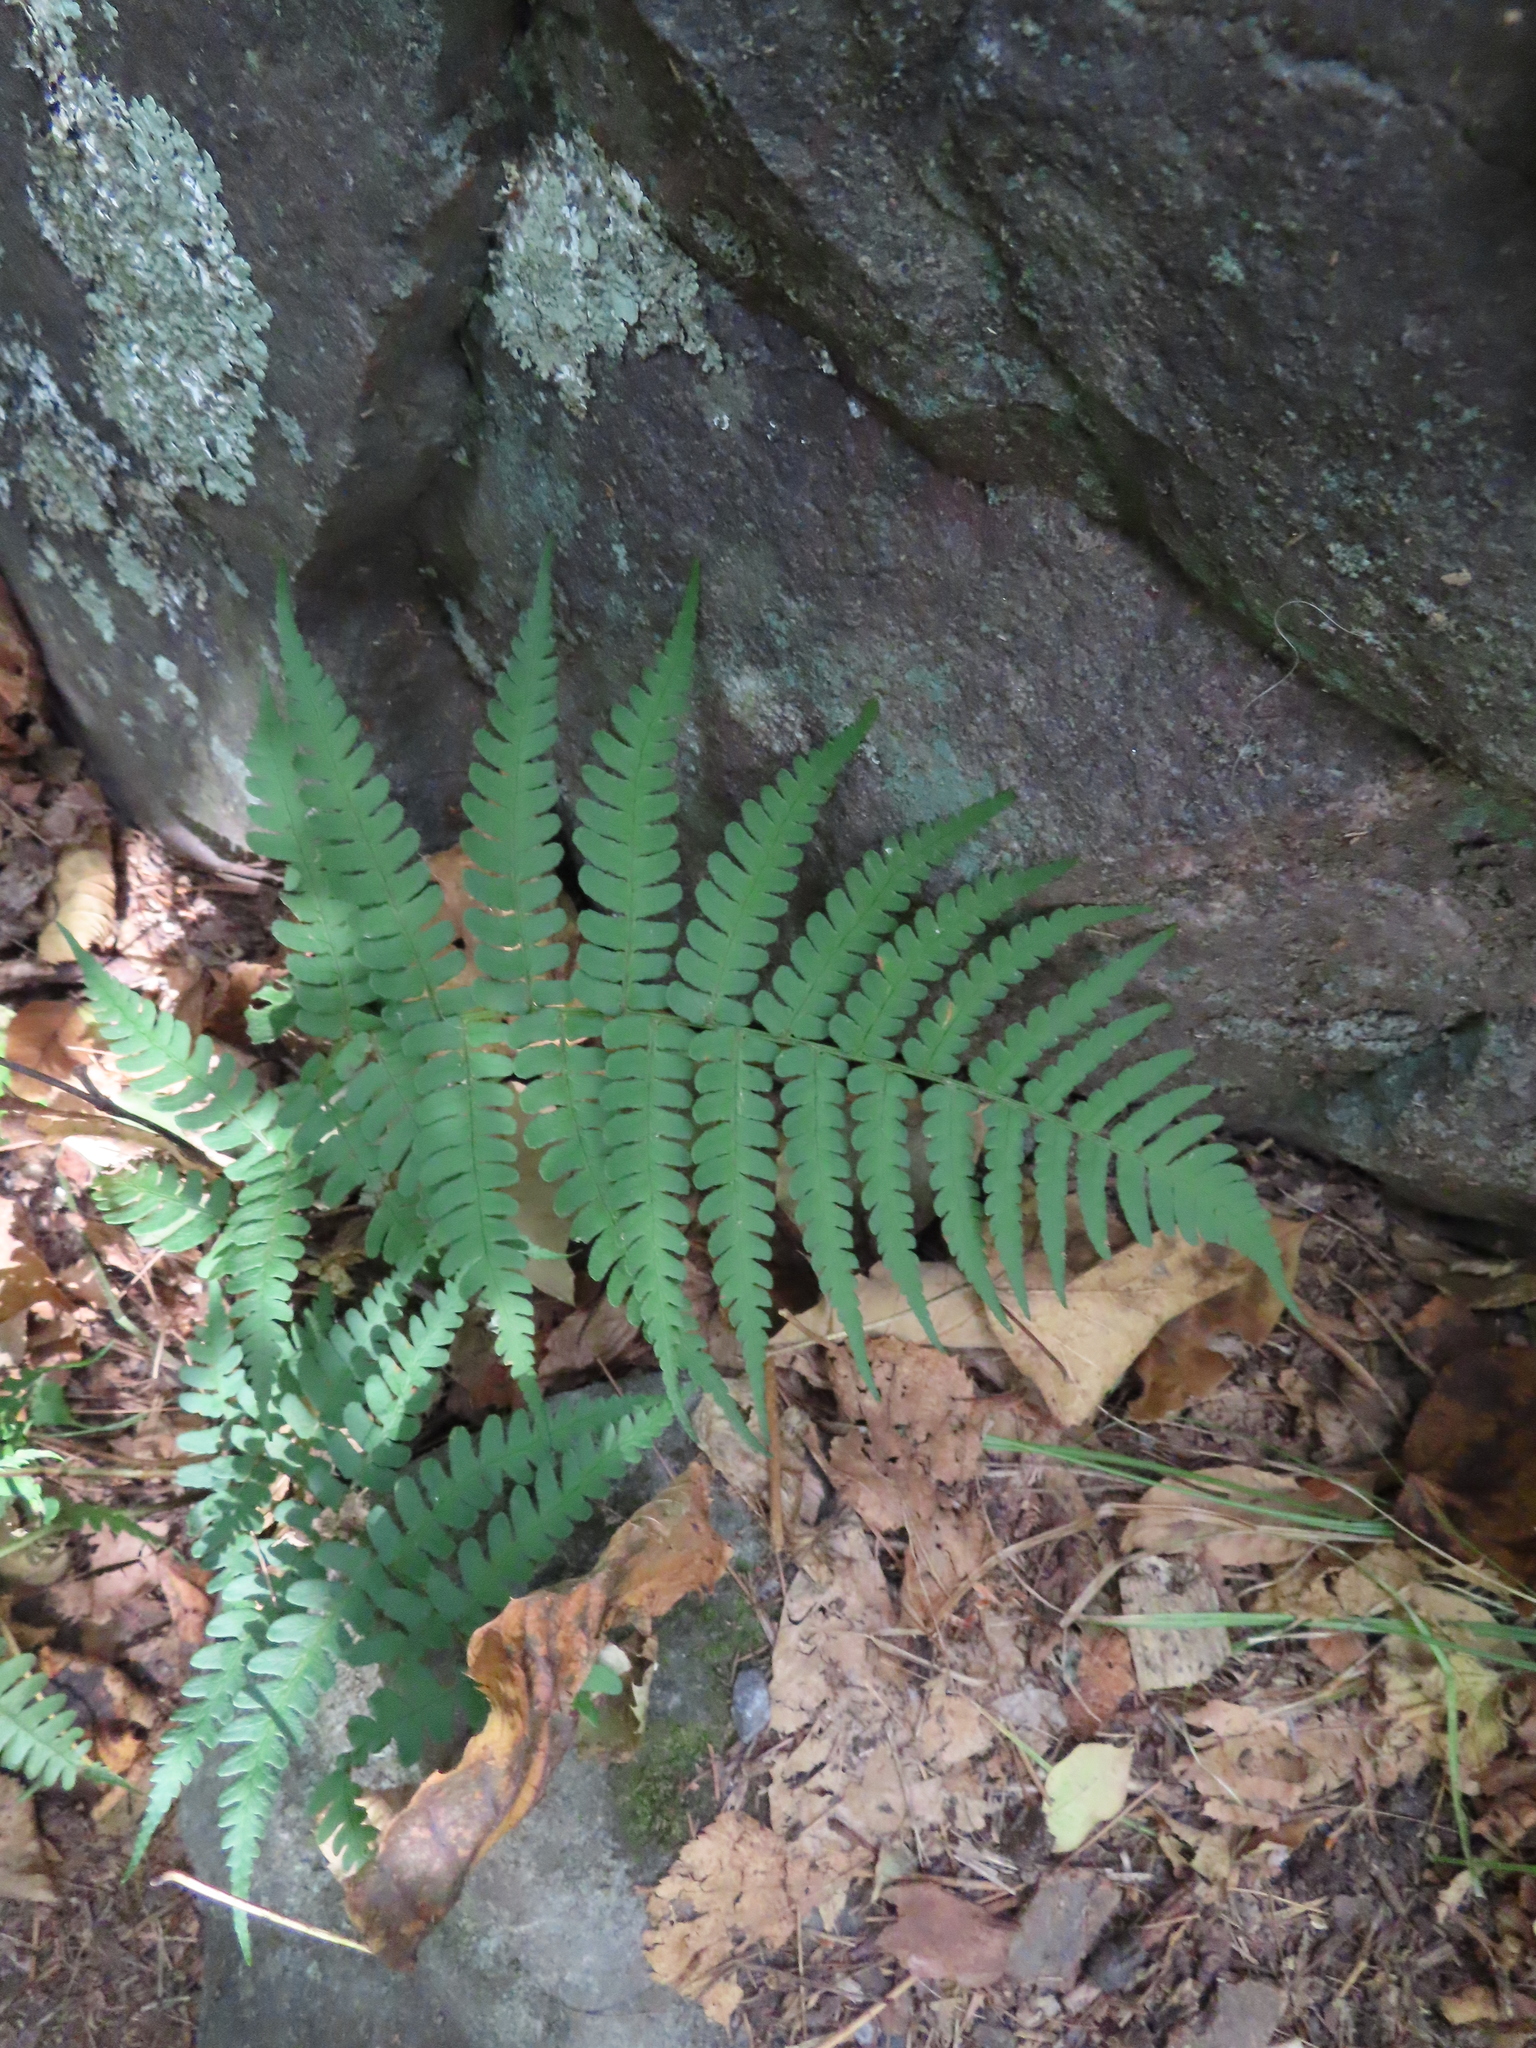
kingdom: Plantae
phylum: Tracheophyta
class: Polypodiopsida
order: Polypodiales
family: Dryopteridaceae
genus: Dryopteris
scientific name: Dryopteris marginalis
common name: Marginal wood fern
